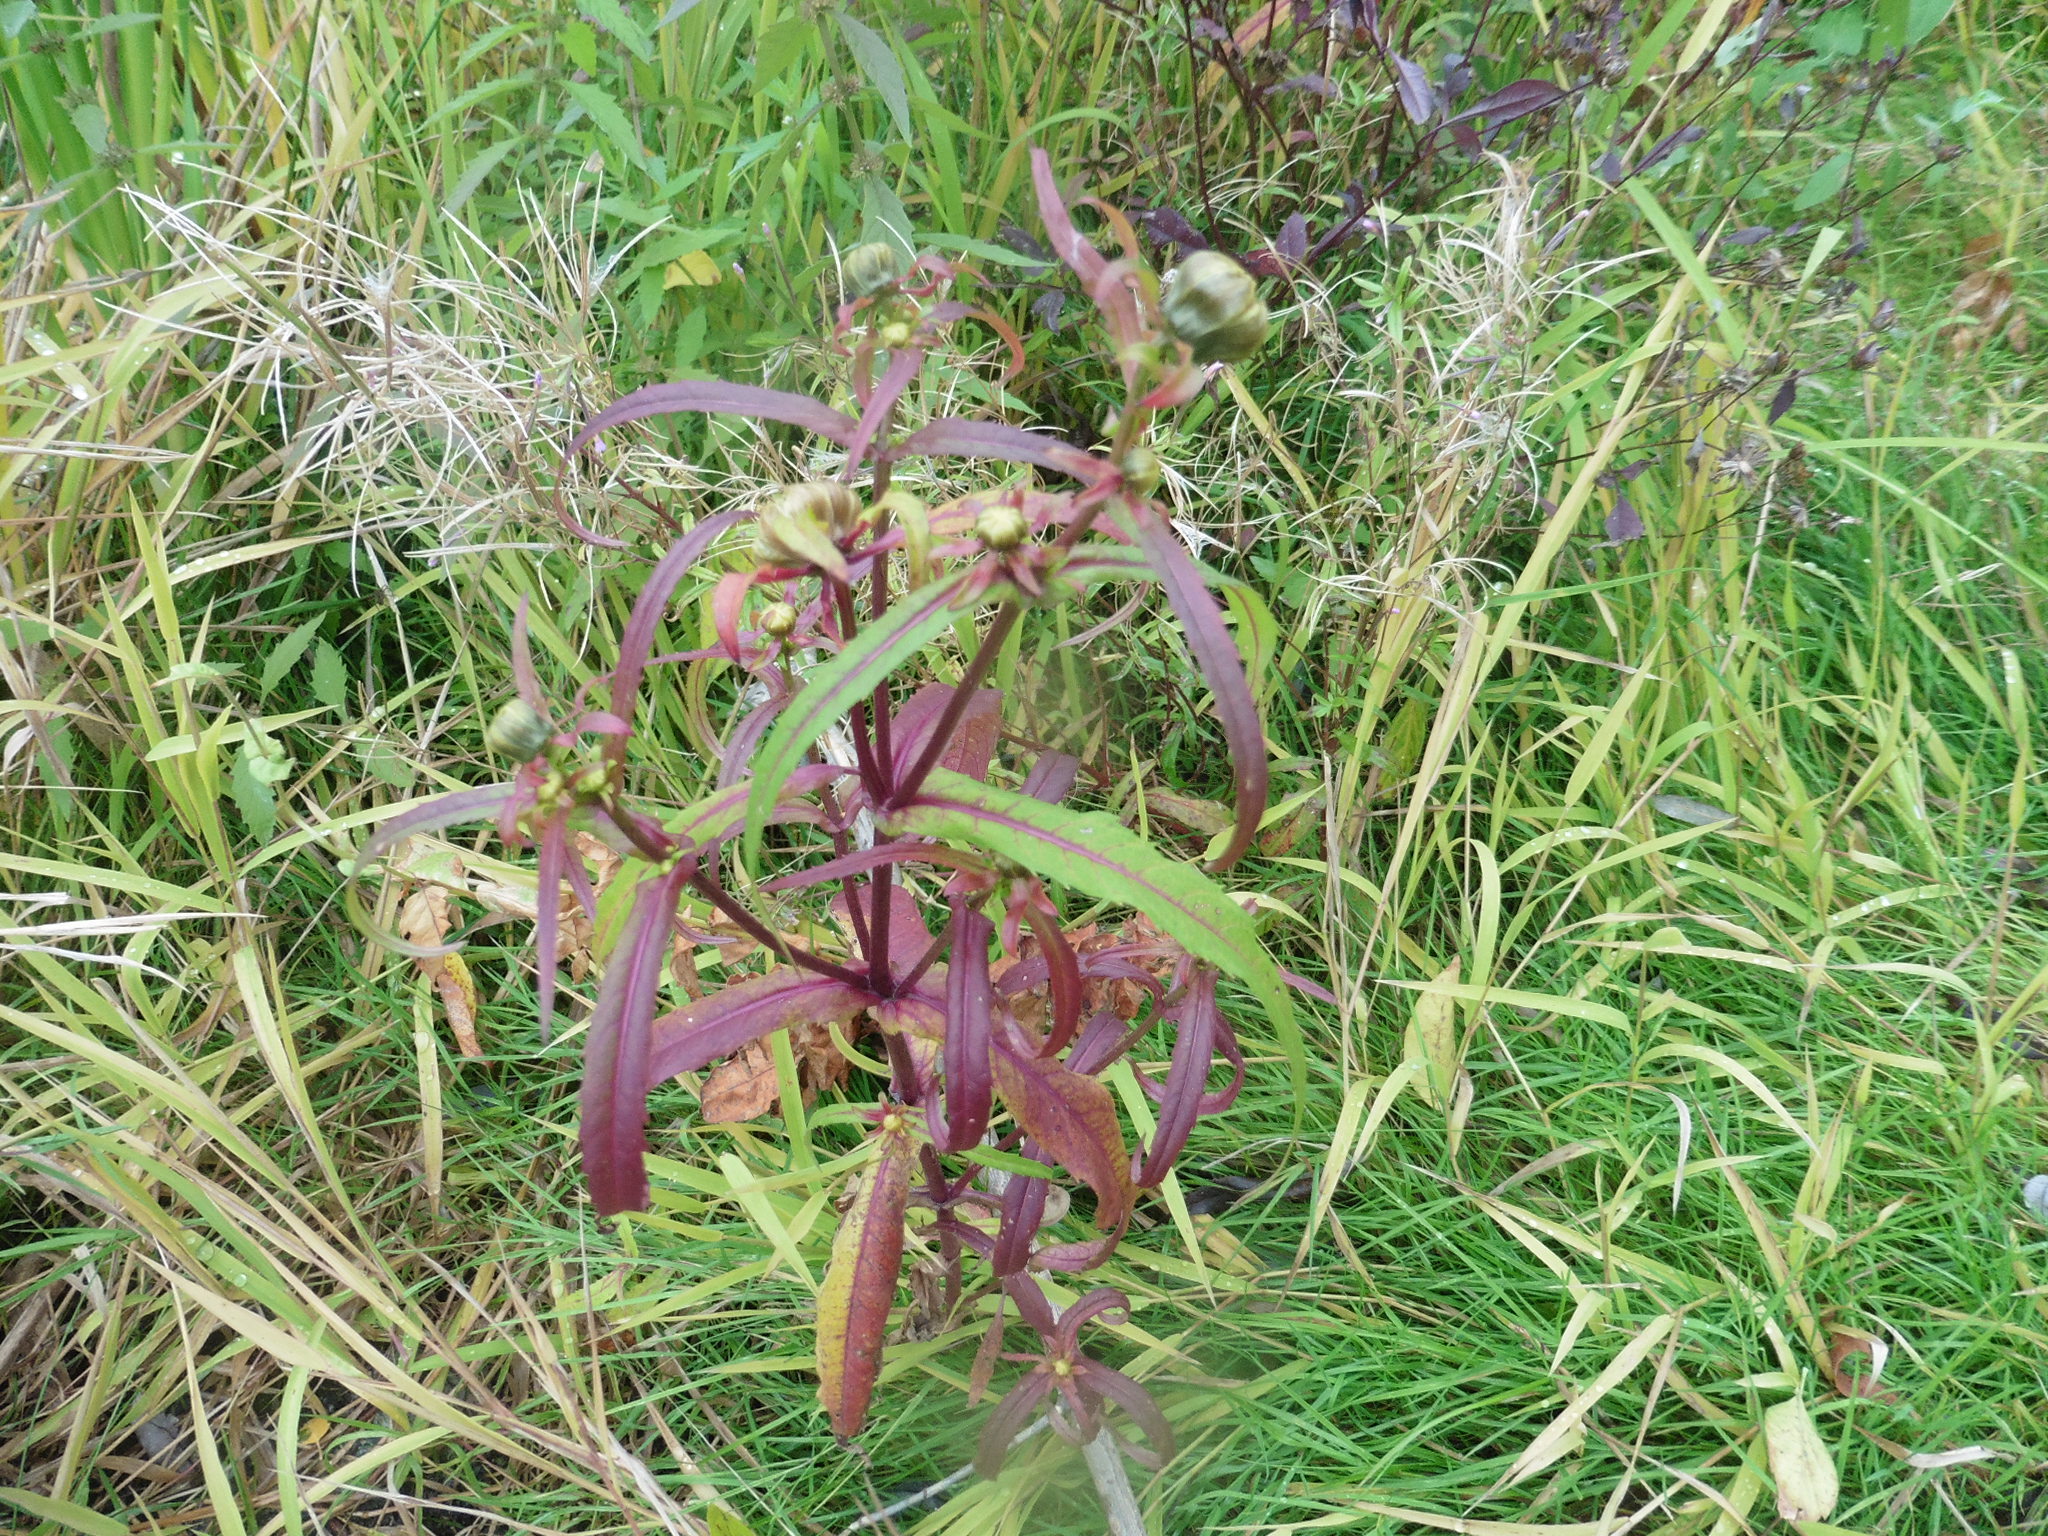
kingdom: Plantae
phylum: Tracheophyta
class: Magnoliopsida
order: Asterales
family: Asteraceae
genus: Bidens
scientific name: Bidens cernua
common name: Nodding bur-marigold
